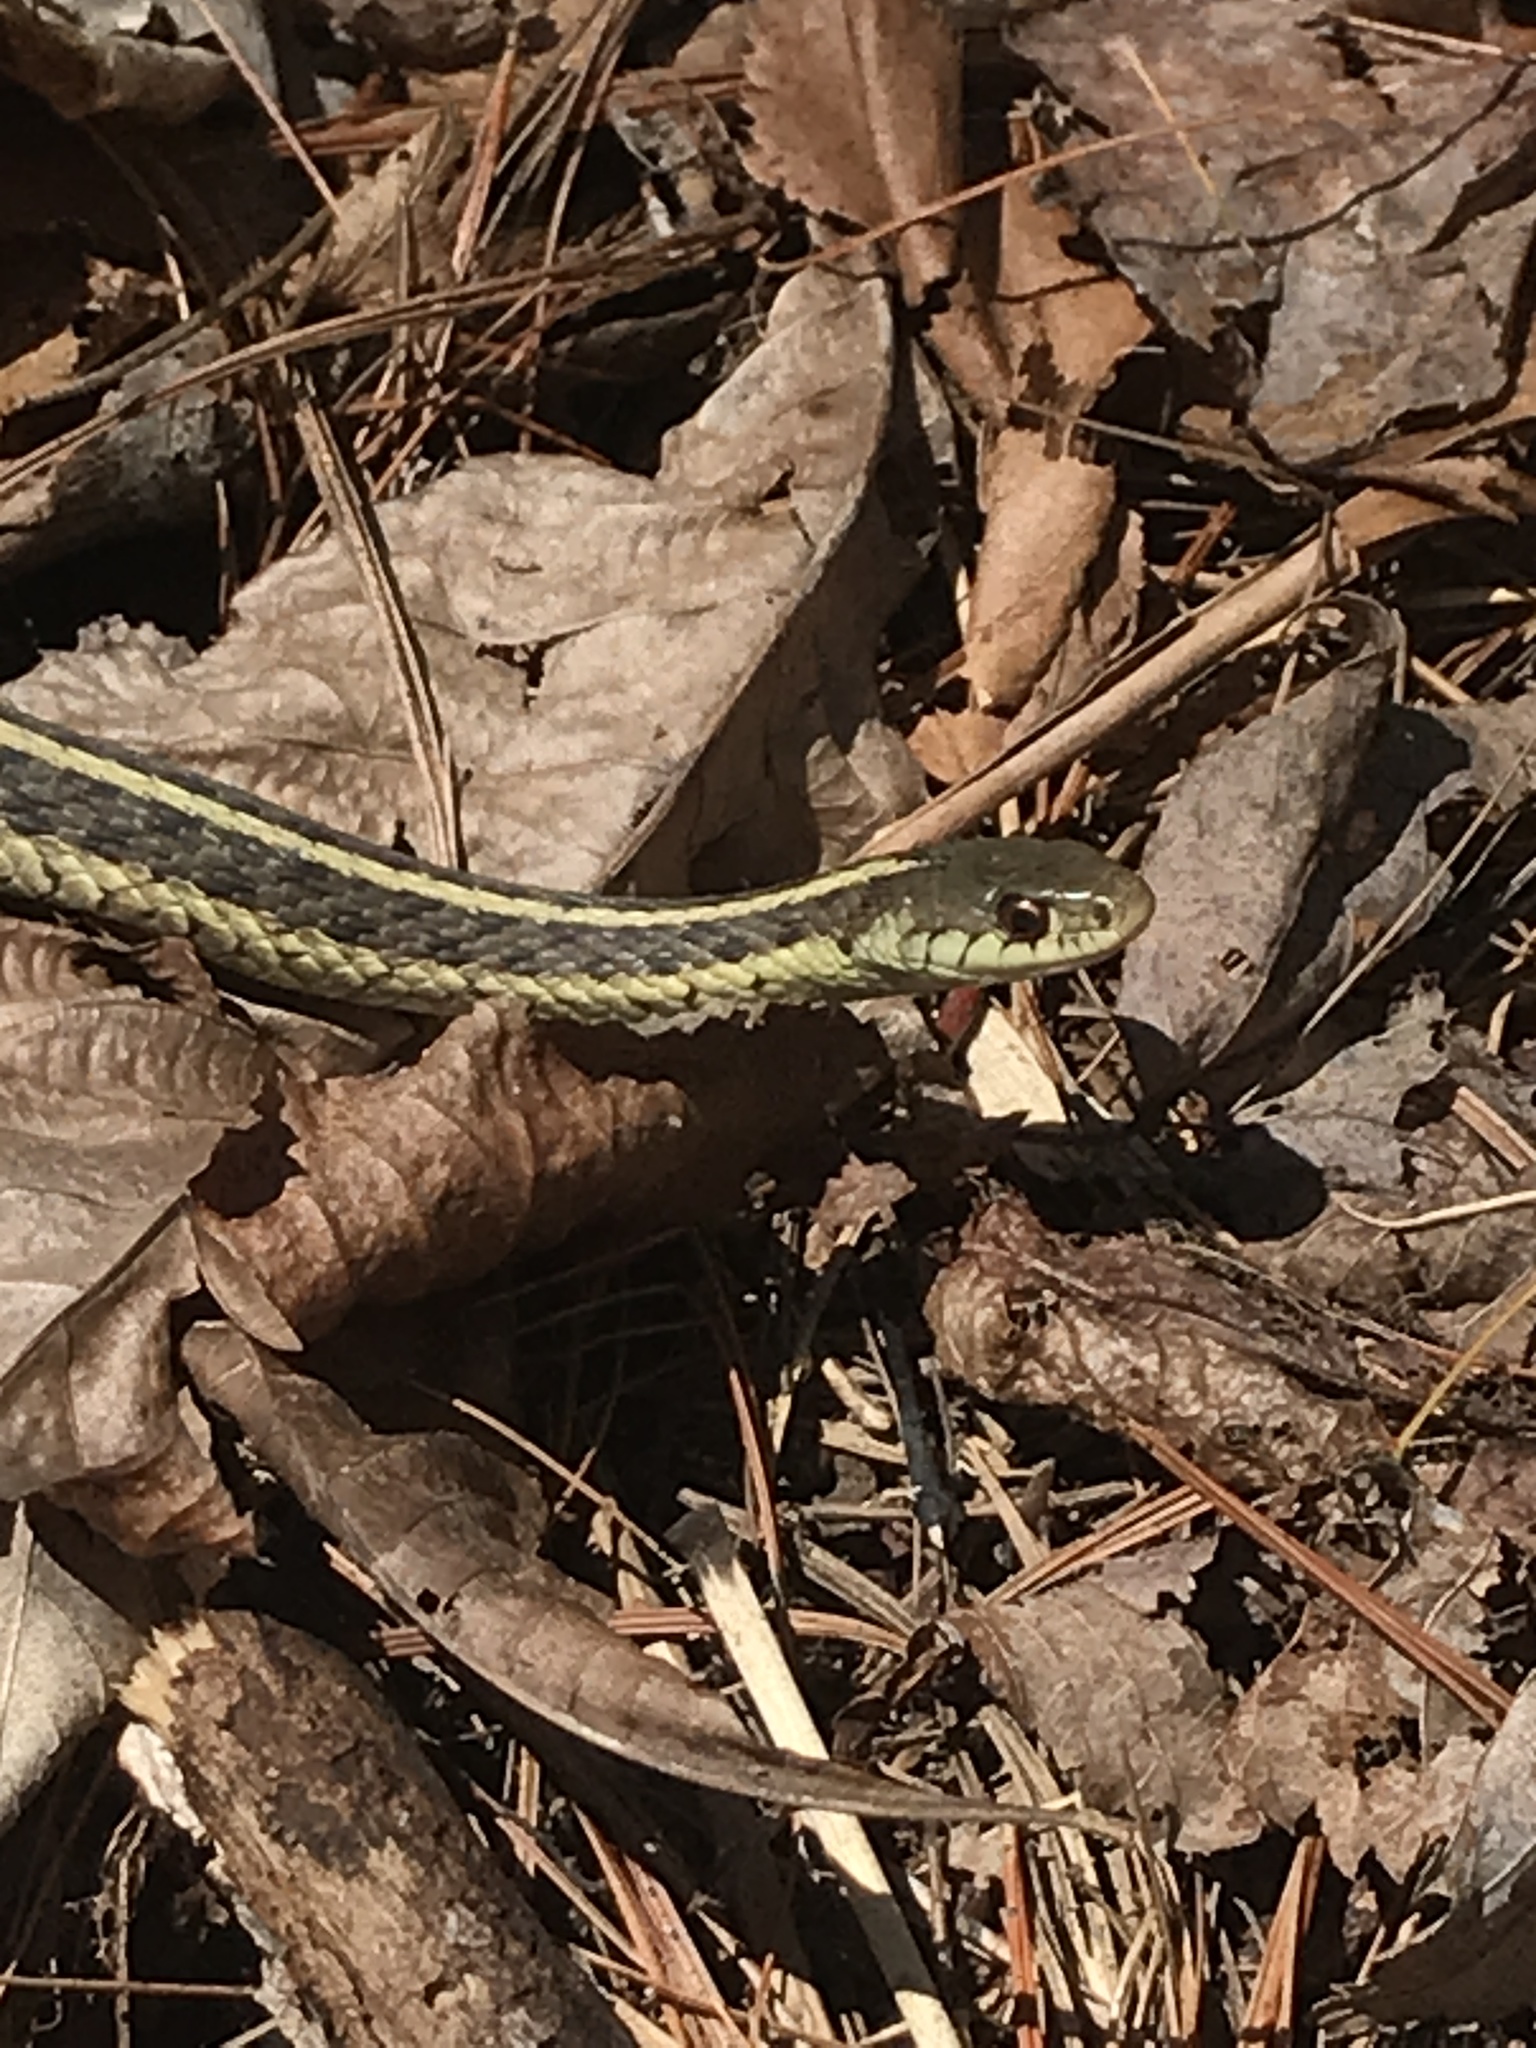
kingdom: Animalia
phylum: Chordata
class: Squamata
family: Colubridae
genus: Thamnophis
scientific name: Thamnophis sirtalis
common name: Common garter snake
